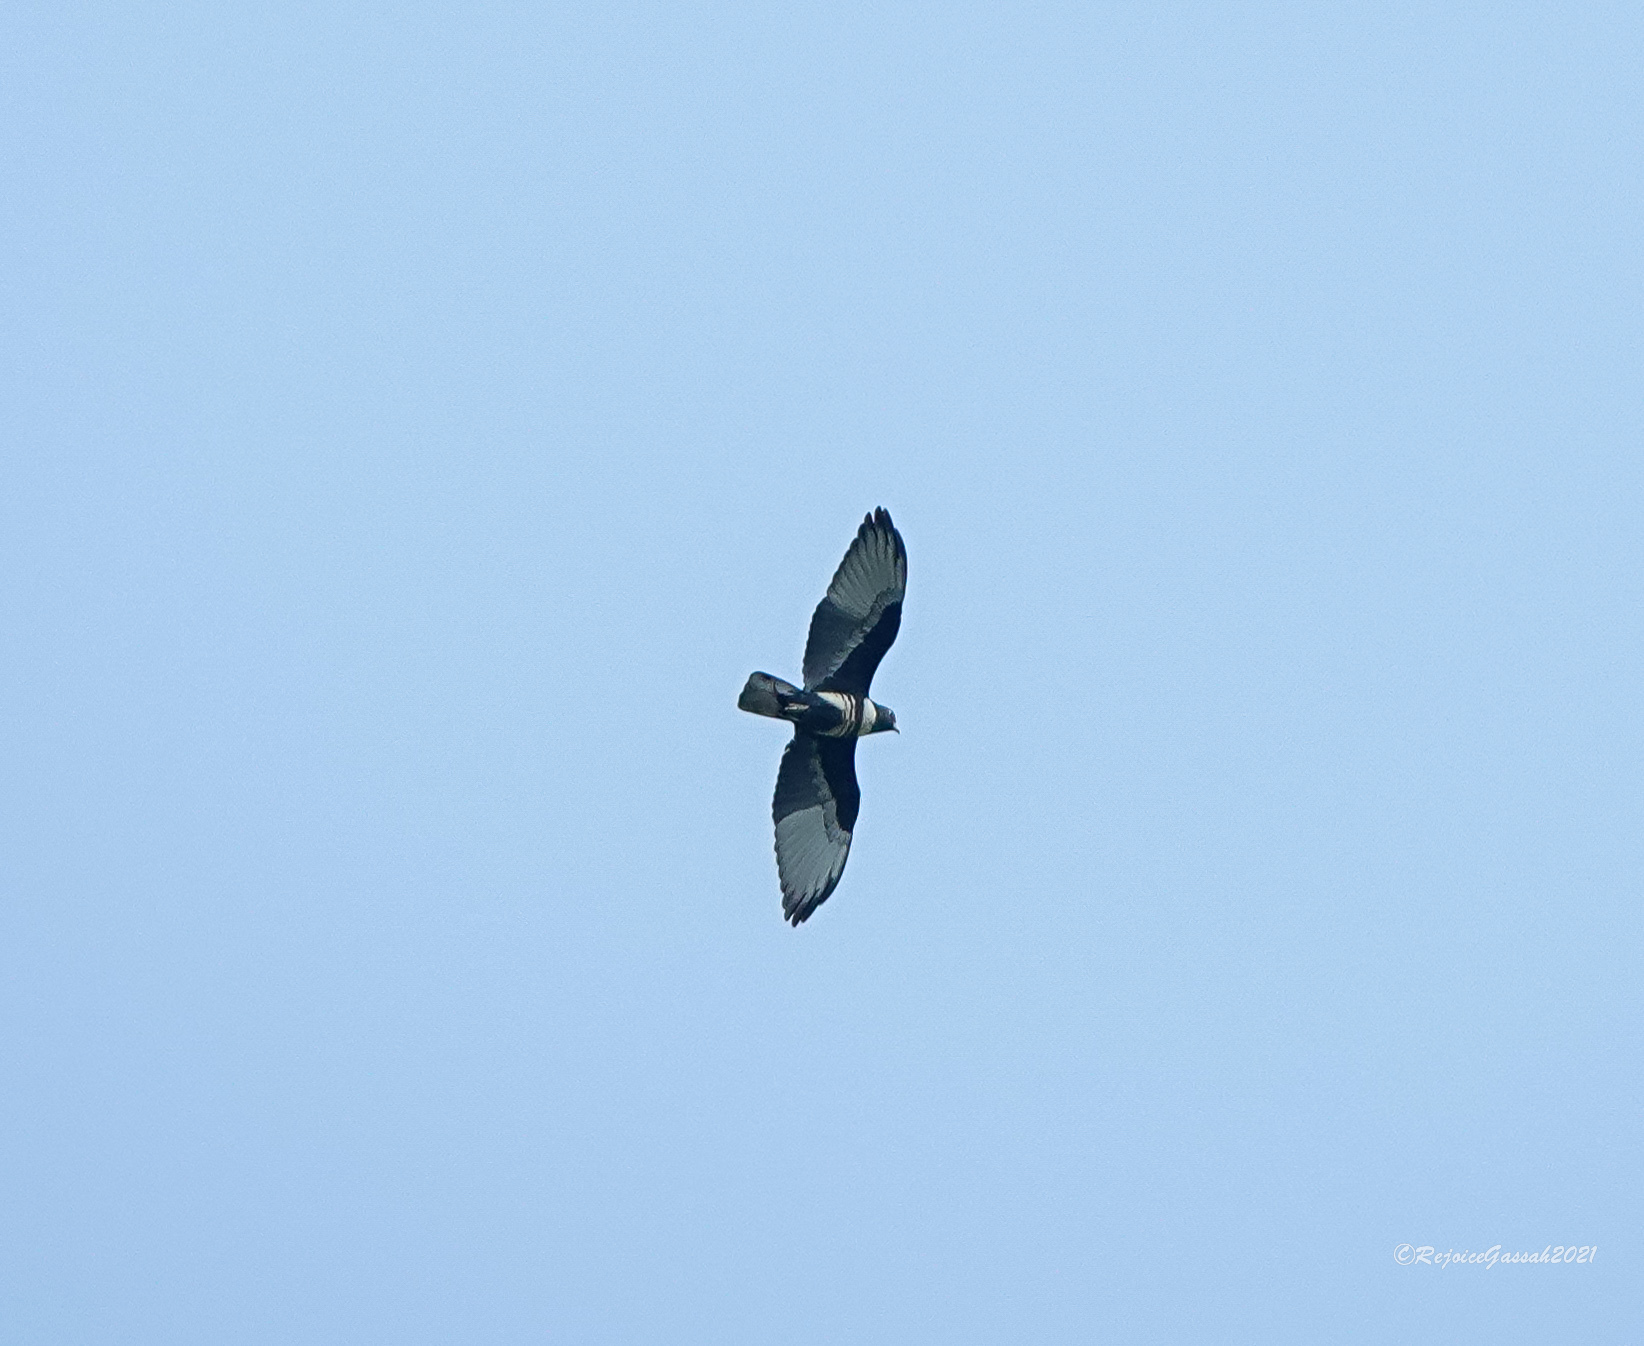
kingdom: Animalia
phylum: Chordata
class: Aves
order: Accipitriformes
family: Accipitridae
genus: Aviceda
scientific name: Aviceda leuphotes
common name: Black baza
